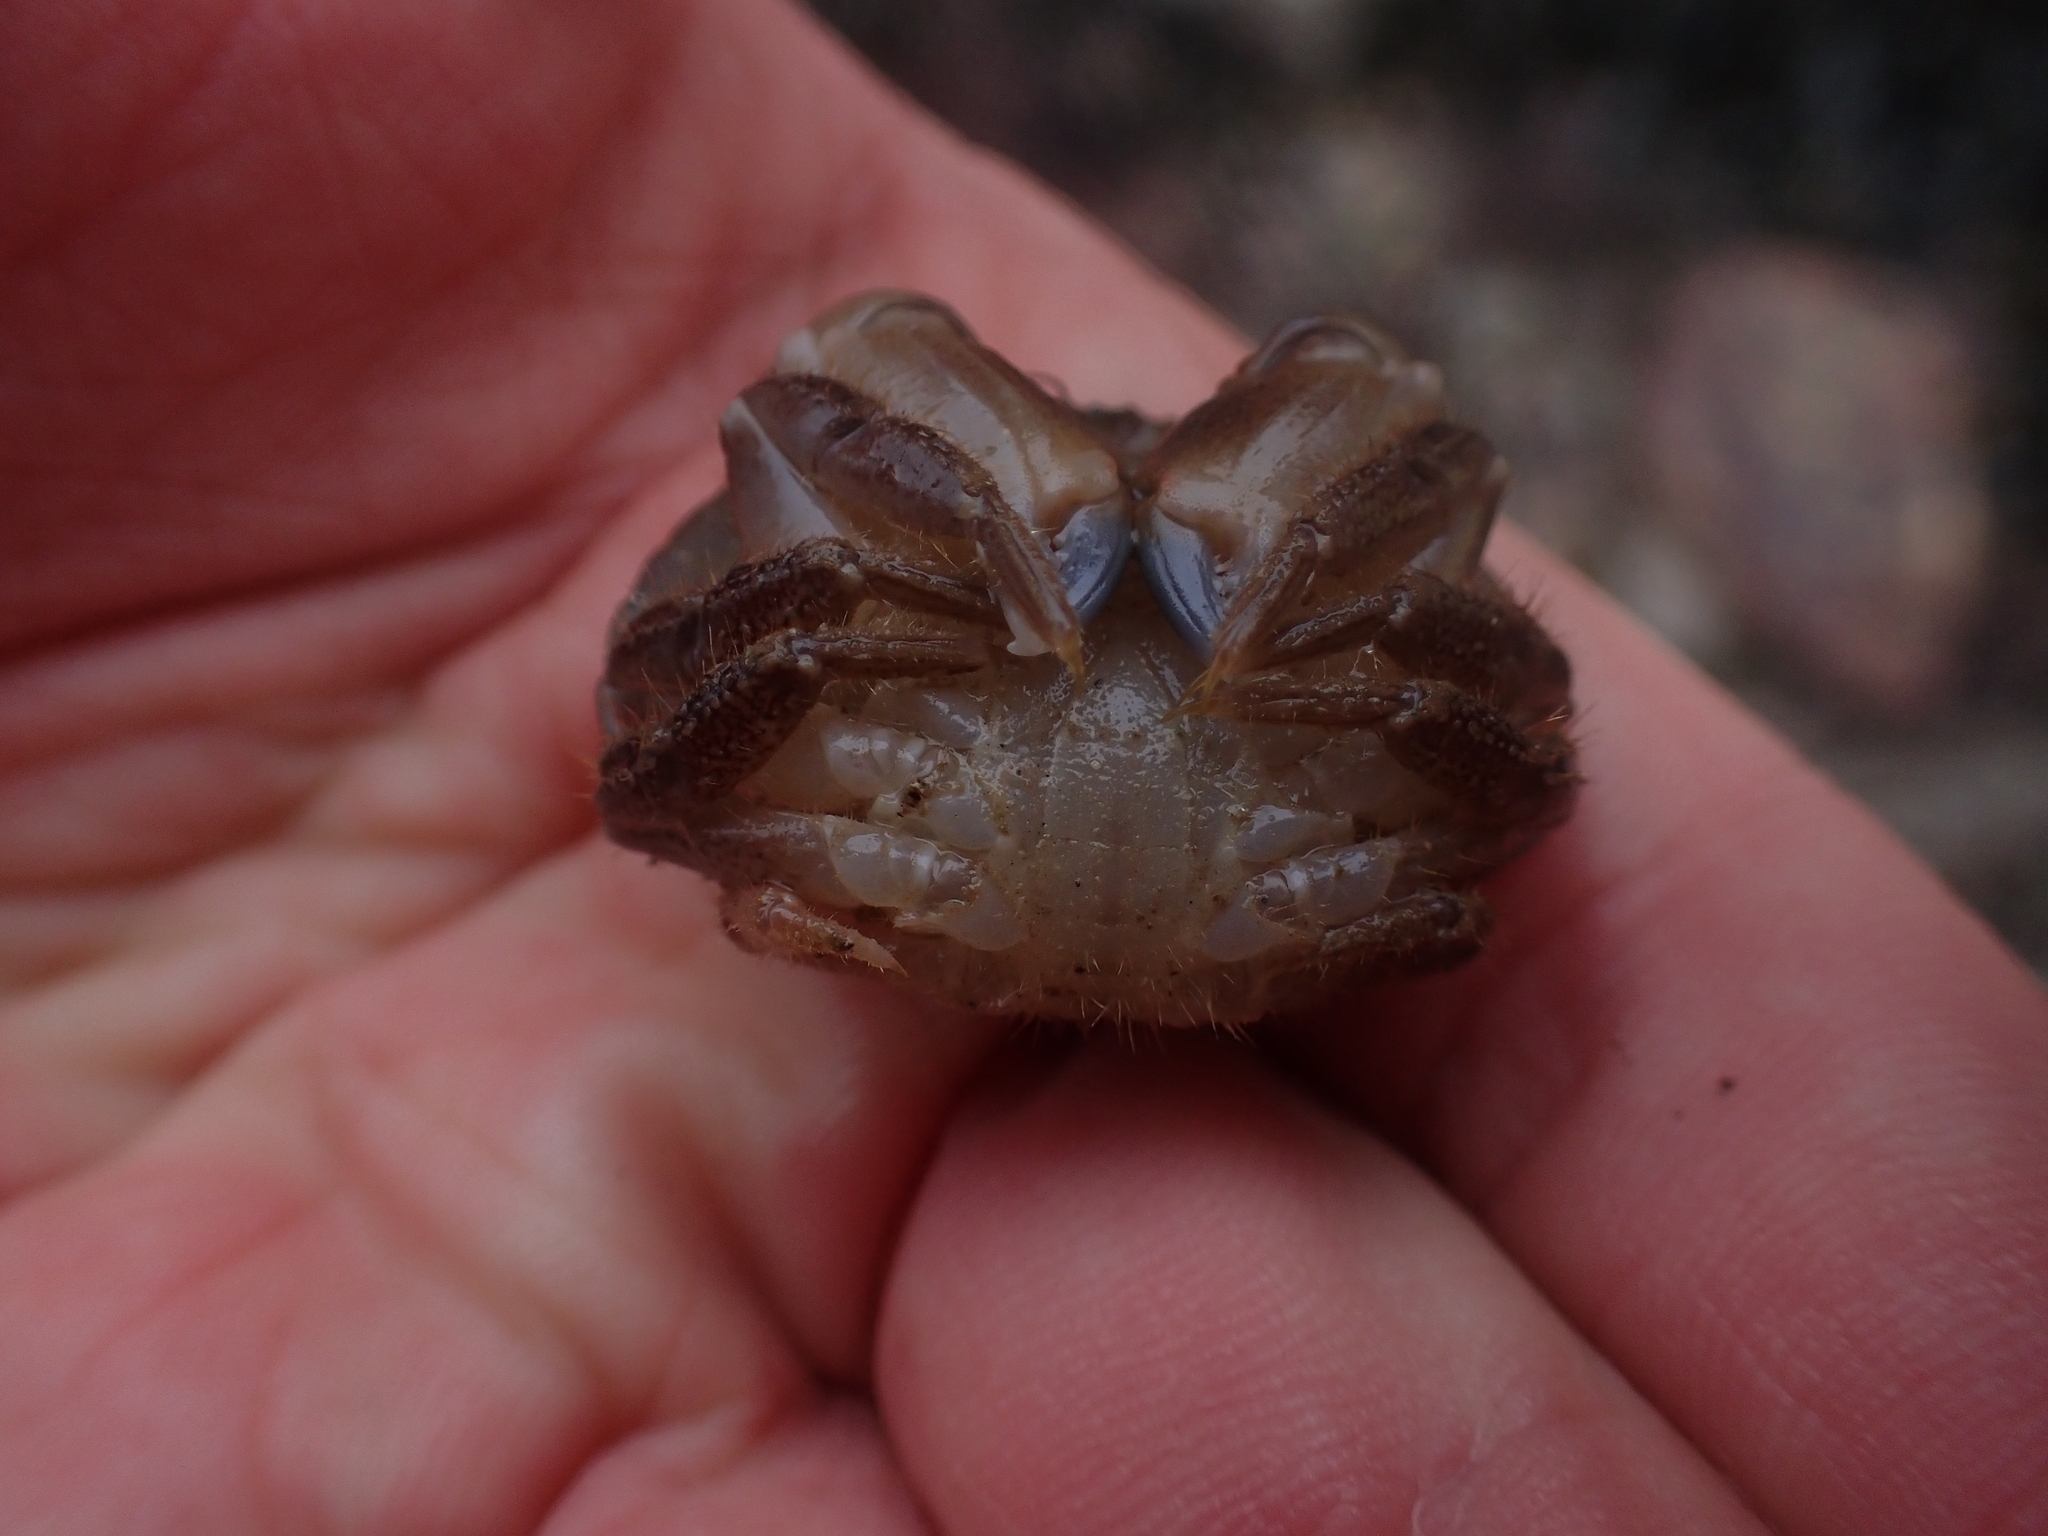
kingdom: Animalia
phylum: Arthropoda
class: Malacostraca
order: Decapoda
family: Cancridae
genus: Cancer
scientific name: Cancer pagurus
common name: Edible crab
